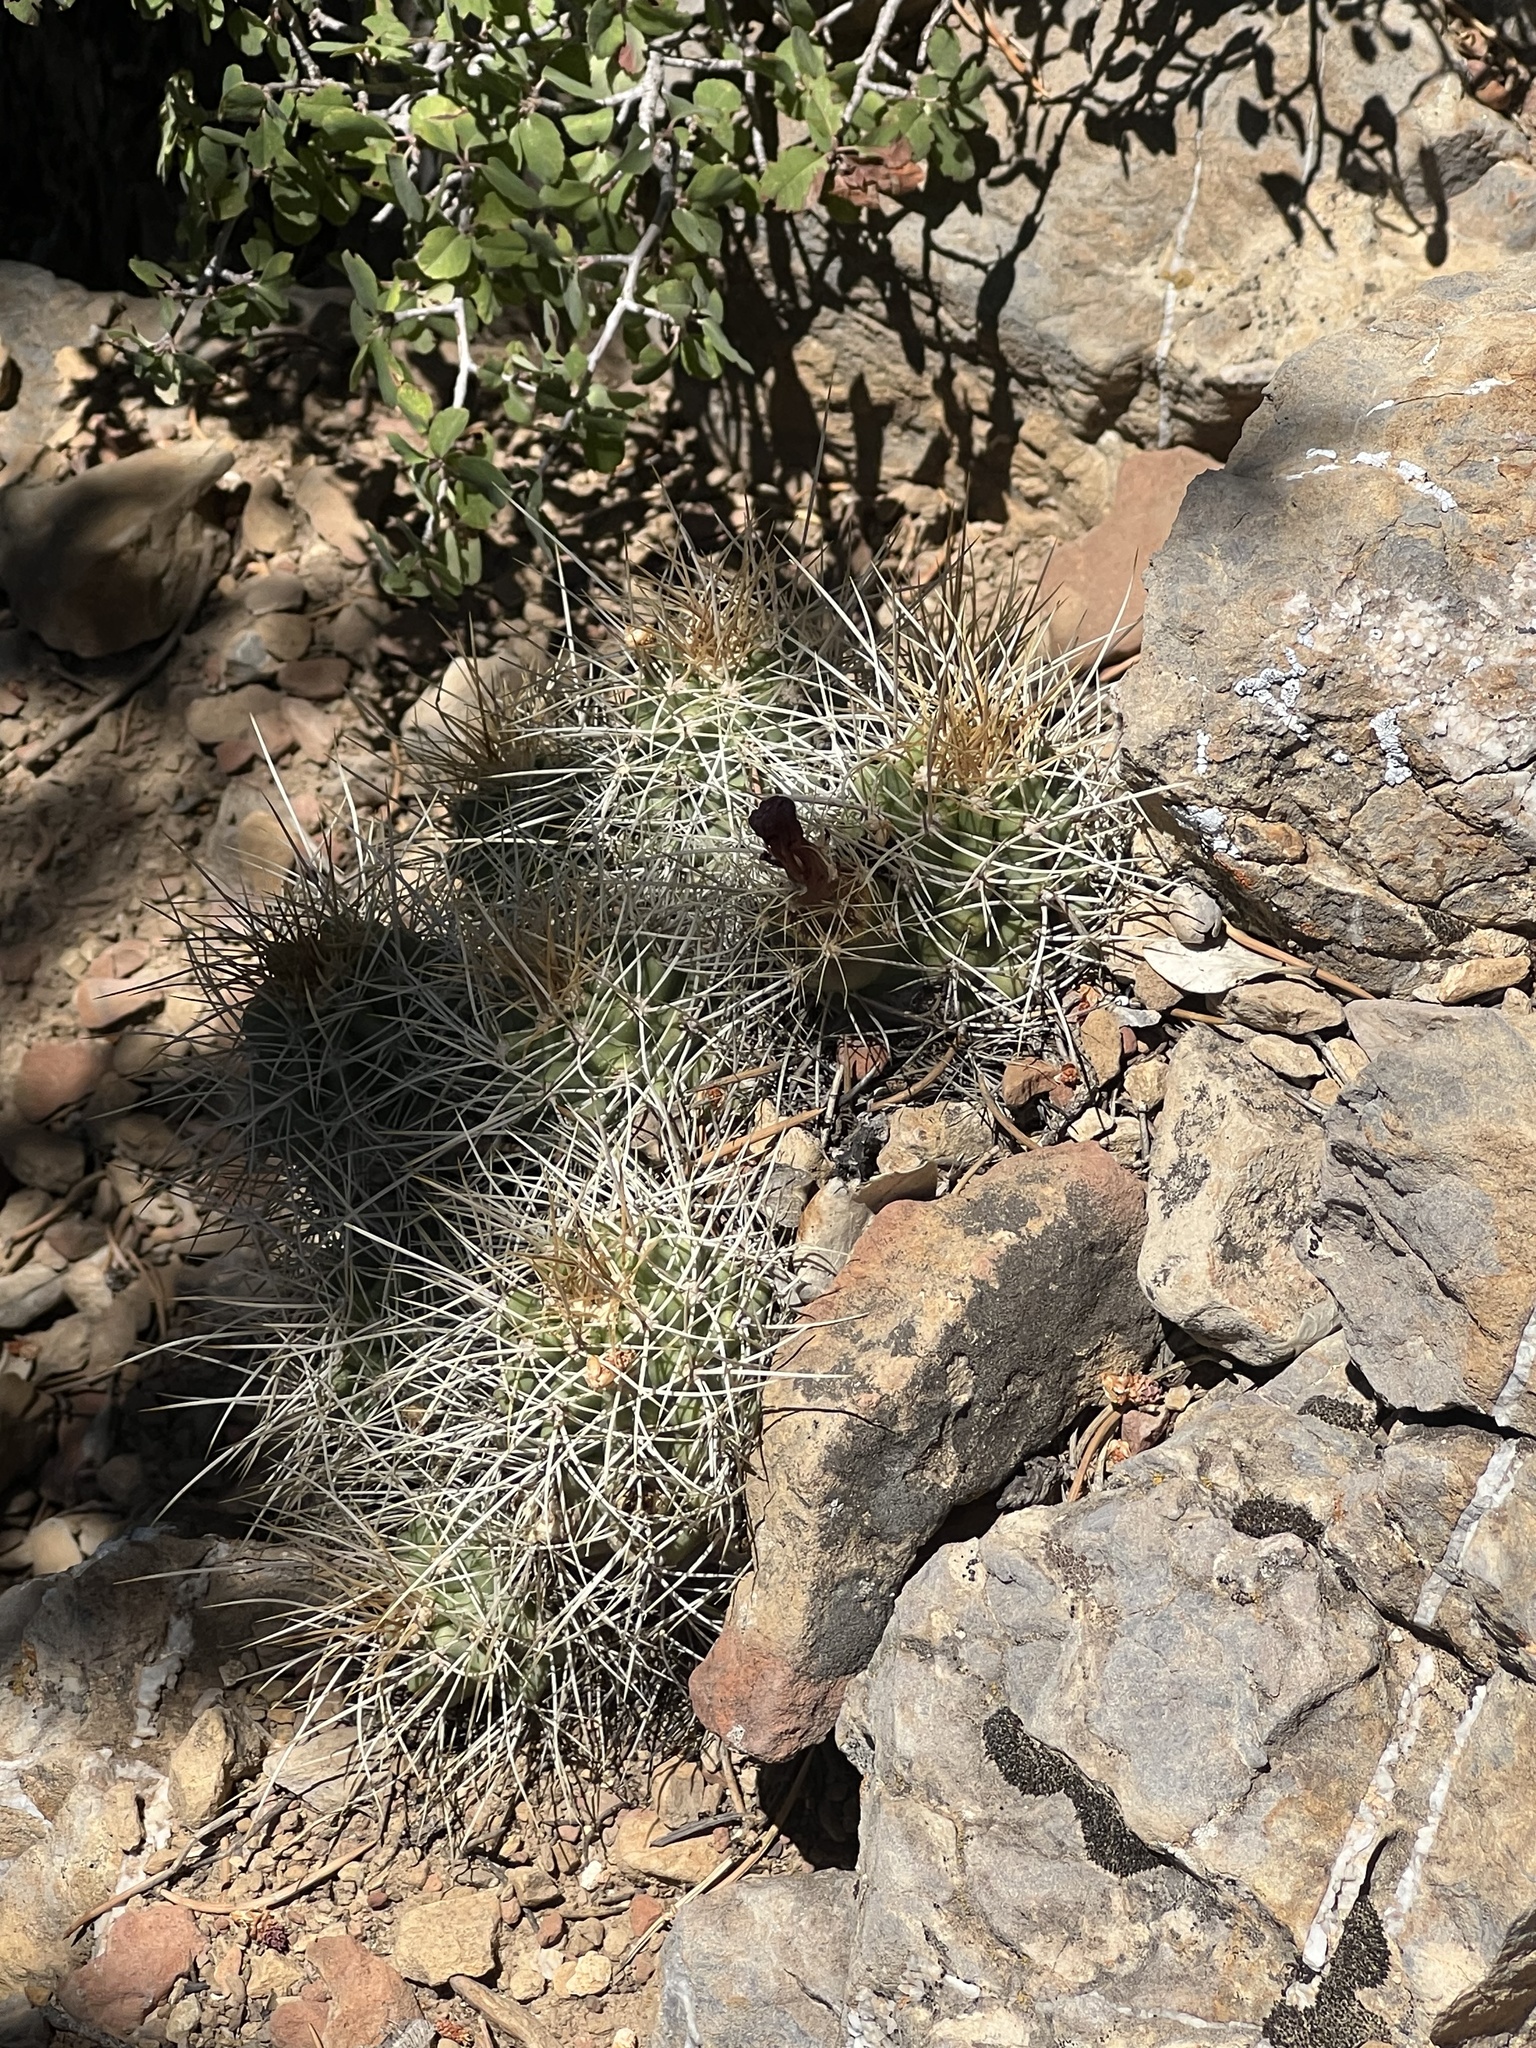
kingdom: Plantae
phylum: Tracheophyta
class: Magnoliopsida
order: Caryophyllales
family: Cactaceae
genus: Echinocereus
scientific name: Echinocereus triglochidiatus
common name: Claretcup hedgehog
